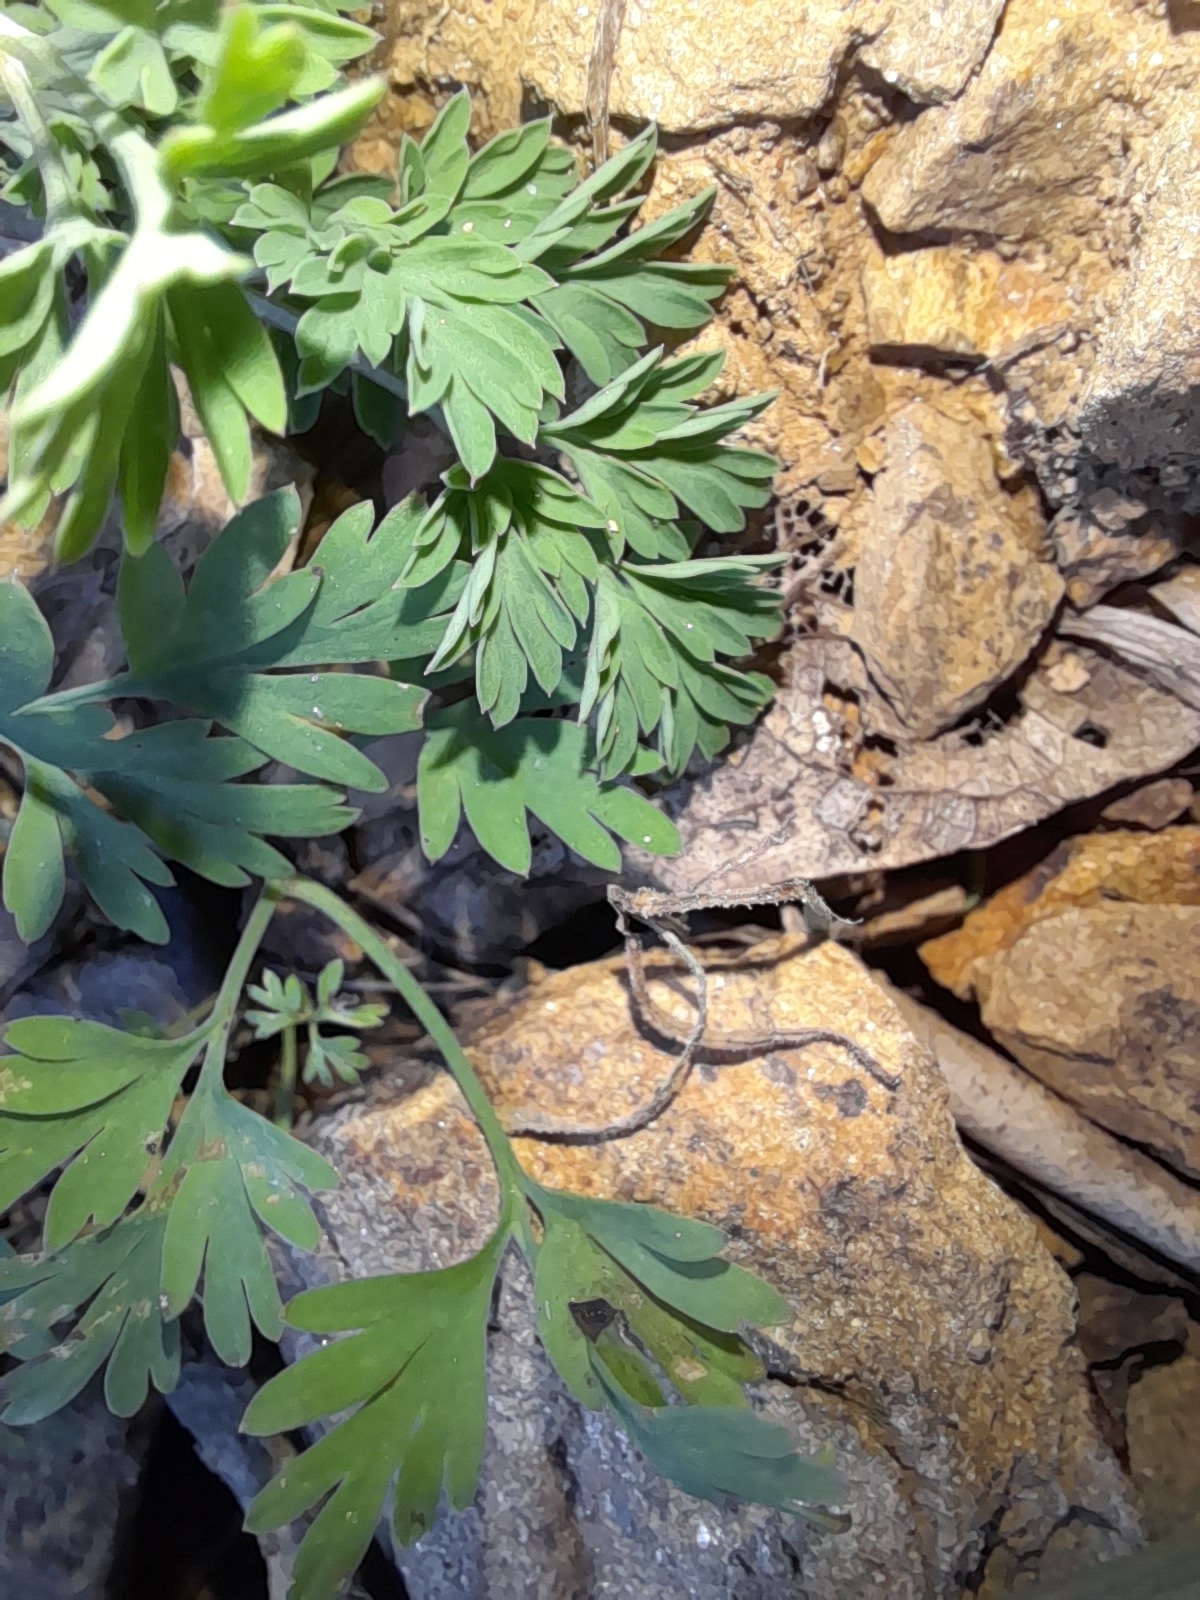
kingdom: Plantae
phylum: Tracheophyta
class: Magnoliopsida
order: Ranunculales
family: Papaveraceae
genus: Fumaria
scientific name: Fumaria bastardii
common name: Tall ramping-fumitory
